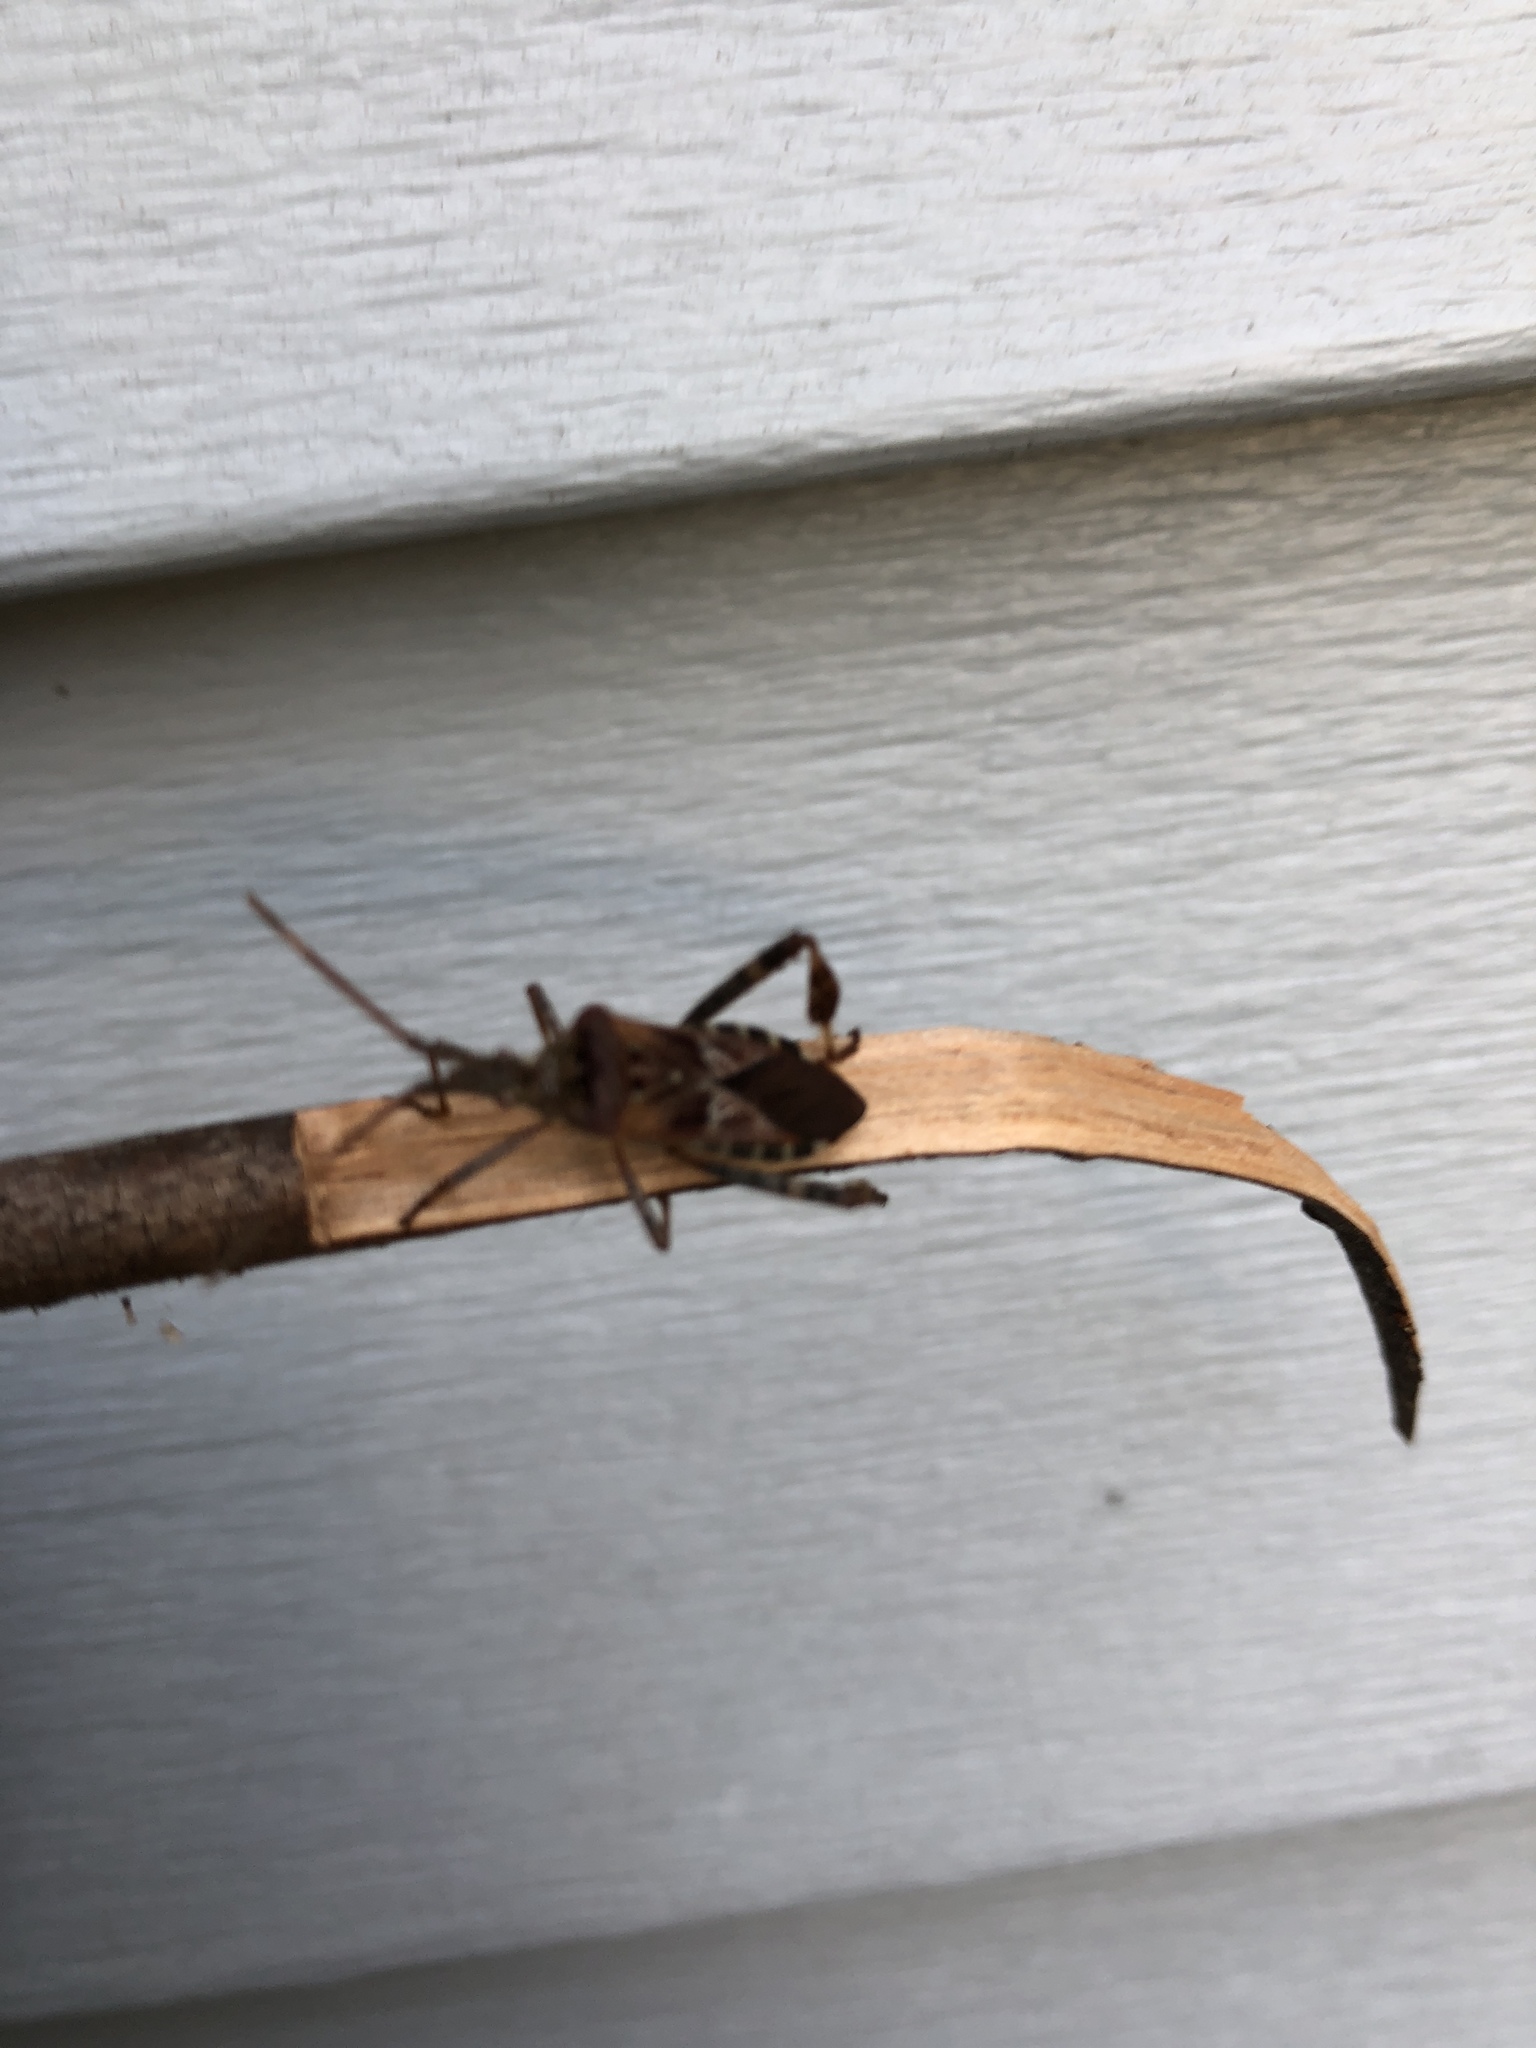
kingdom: Animalia
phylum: Arthropoda
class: Insecta
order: Hemiptera
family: Coreidae
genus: Leptoglossus
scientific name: Leptoglossus occidentalis
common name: Western conifer-seed bug
